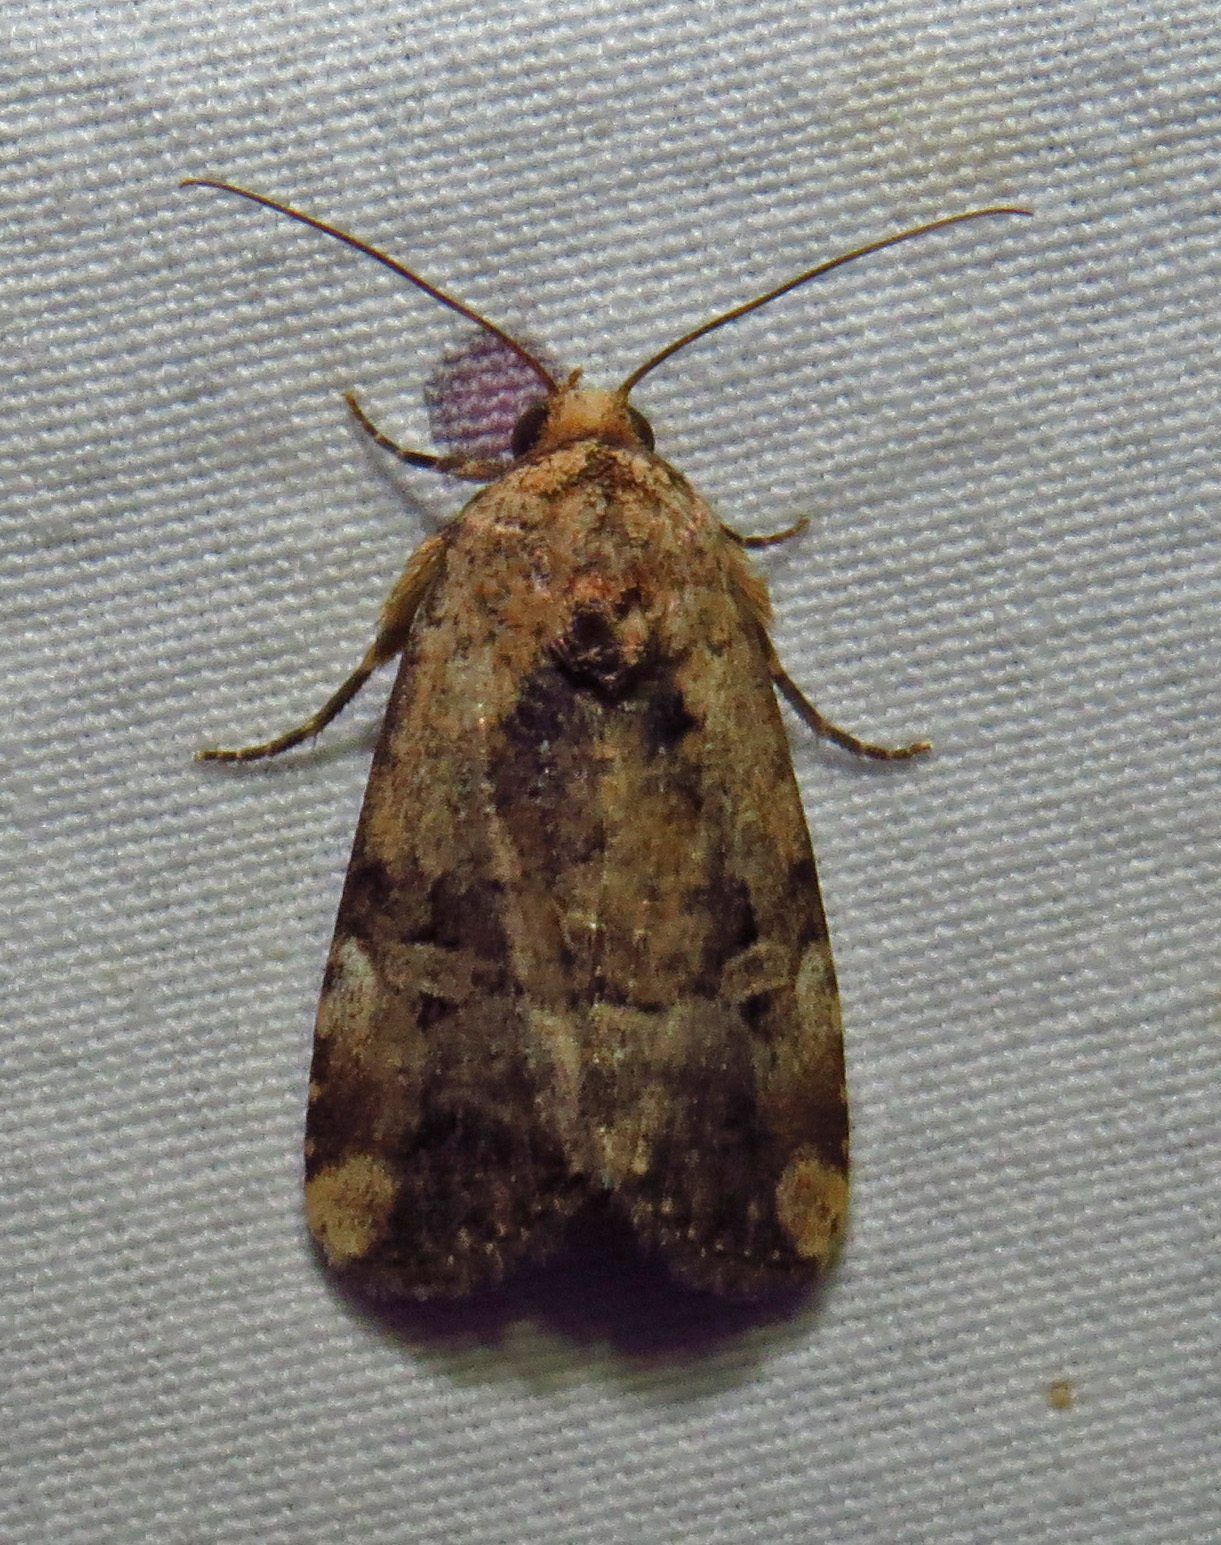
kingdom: Animalia
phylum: Arthropoda
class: Insecta
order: Lepidoptera
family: Noctuidae
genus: Elaphria
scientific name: Elaphria chalcedonia
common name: Chalcedony midget
